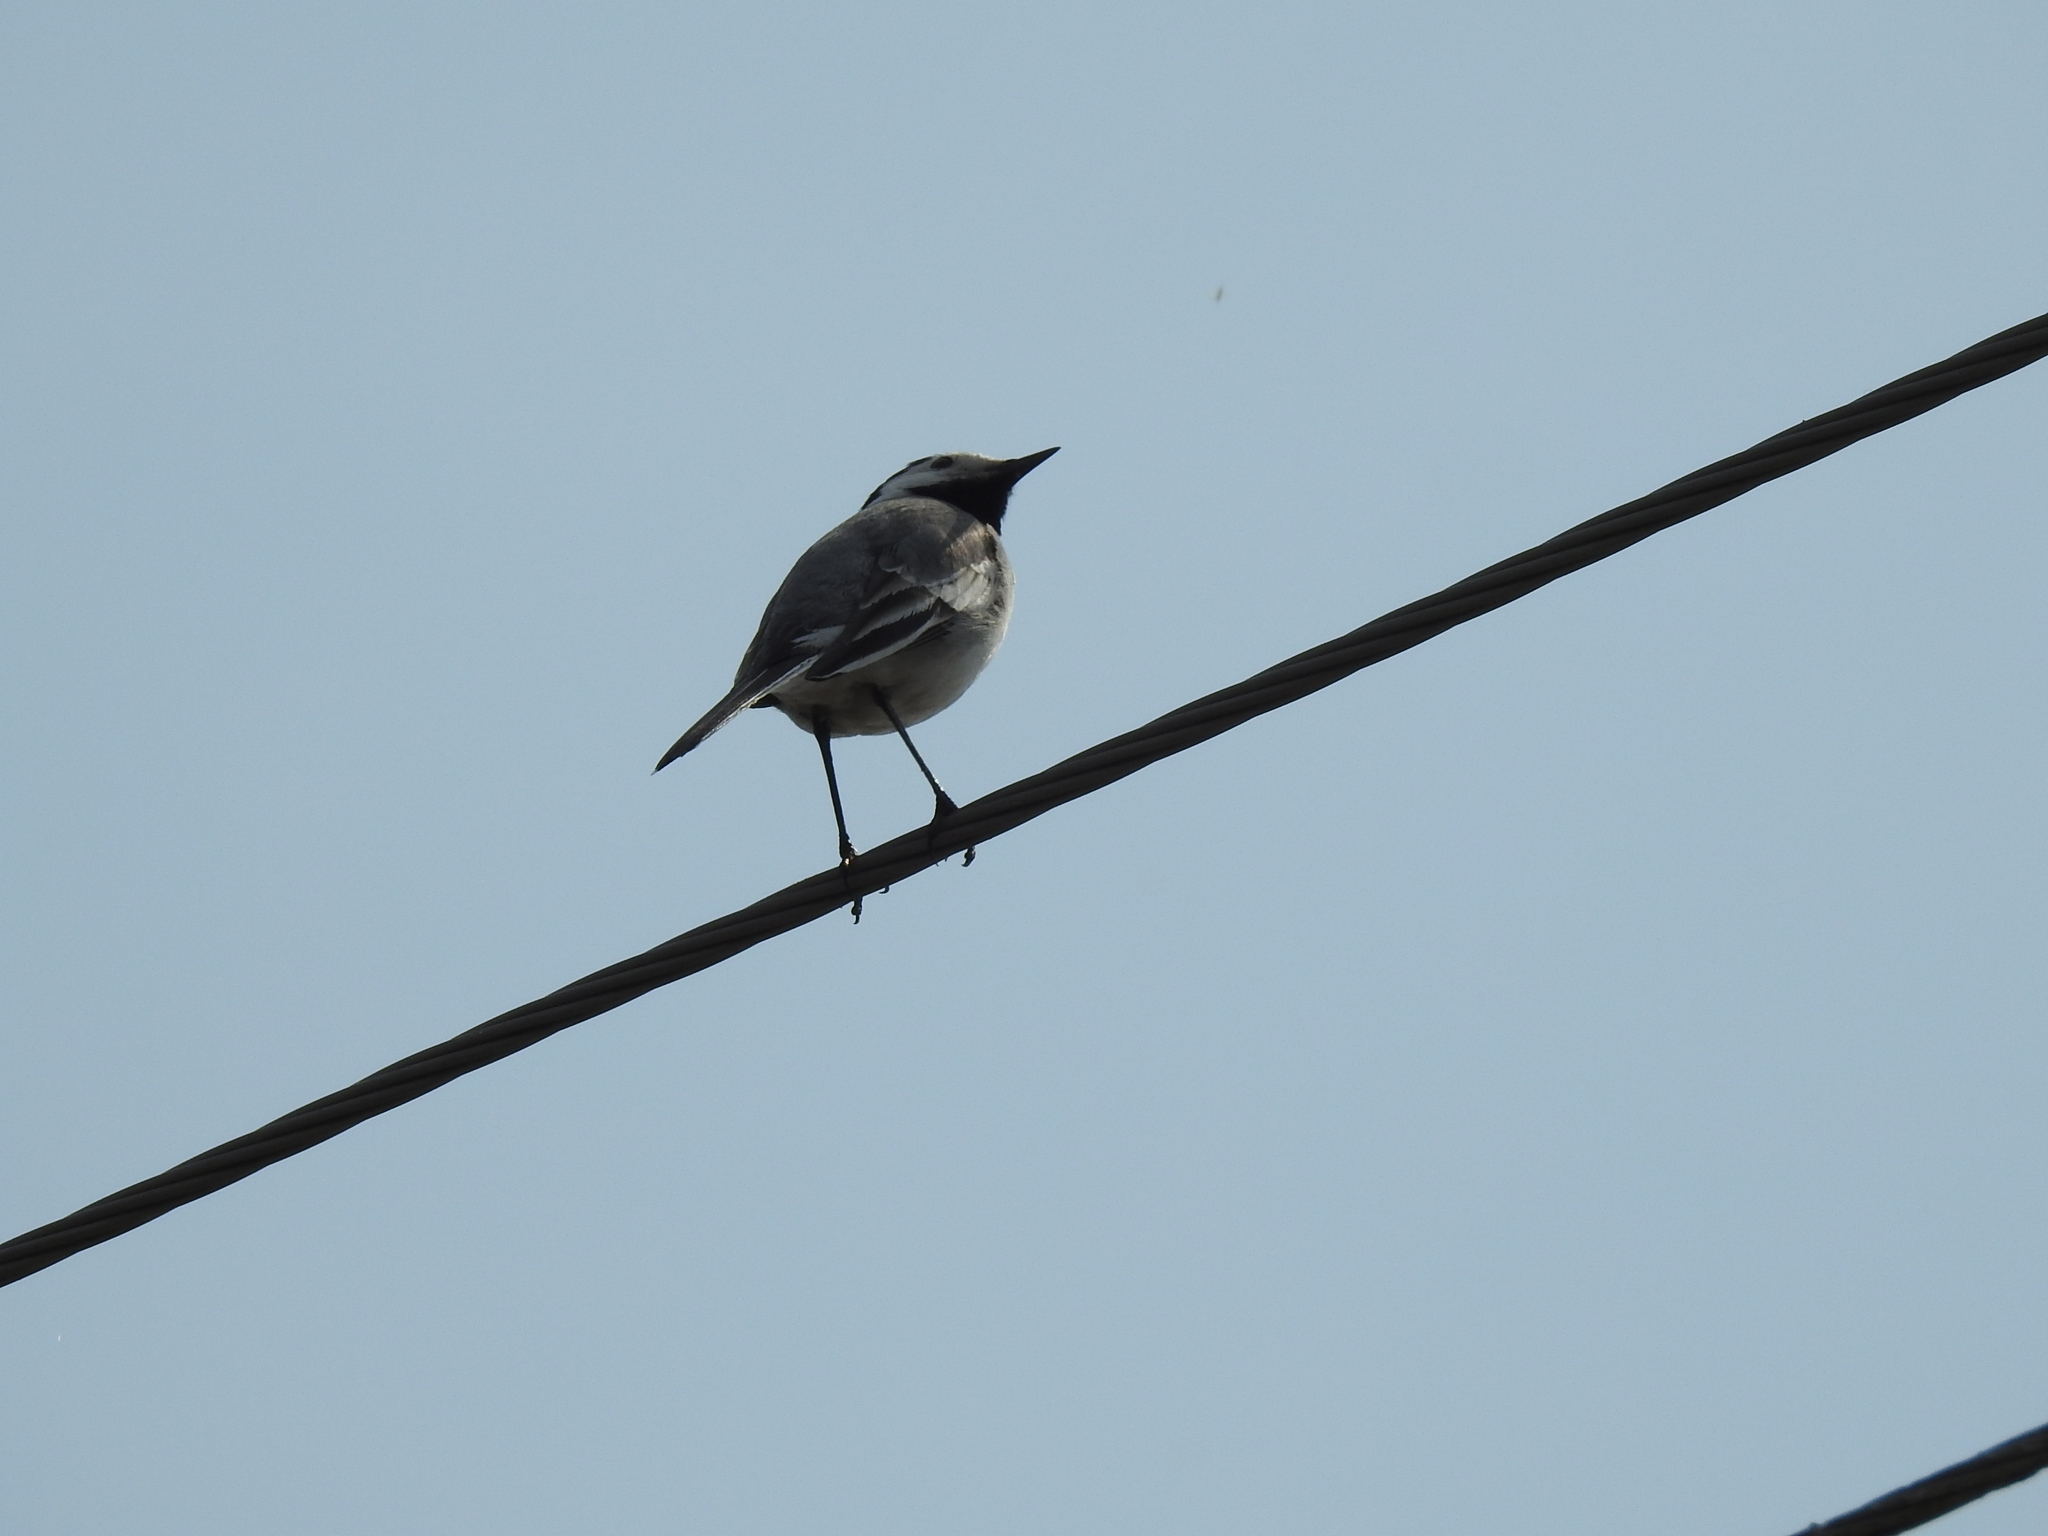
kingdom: Animalia
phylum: Chordata
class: Aves
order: Passeriformes
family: Motacillidae
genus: Motacilla
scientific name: Motacilla alba
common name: White wagtail
